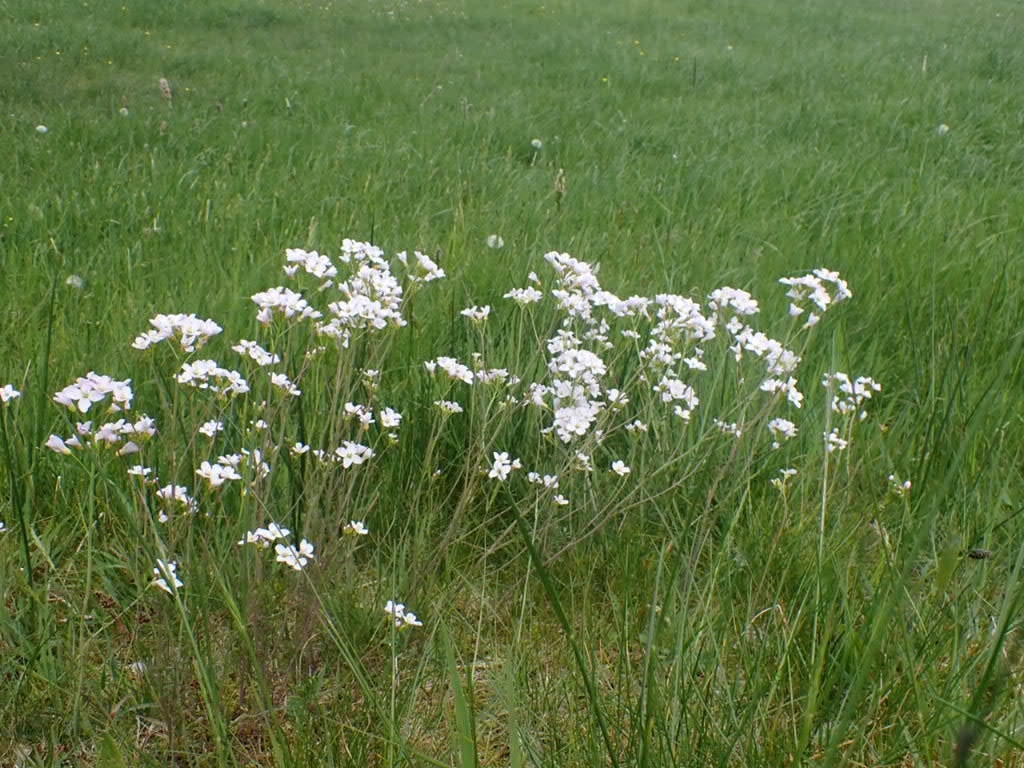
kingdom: Plantae
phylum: Tracheophyta
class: Magnoliopsida
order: Brassicales
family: Brassicaceae
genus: Cardamine
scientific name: Cardamine pratensis
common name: Cuckoo flower
